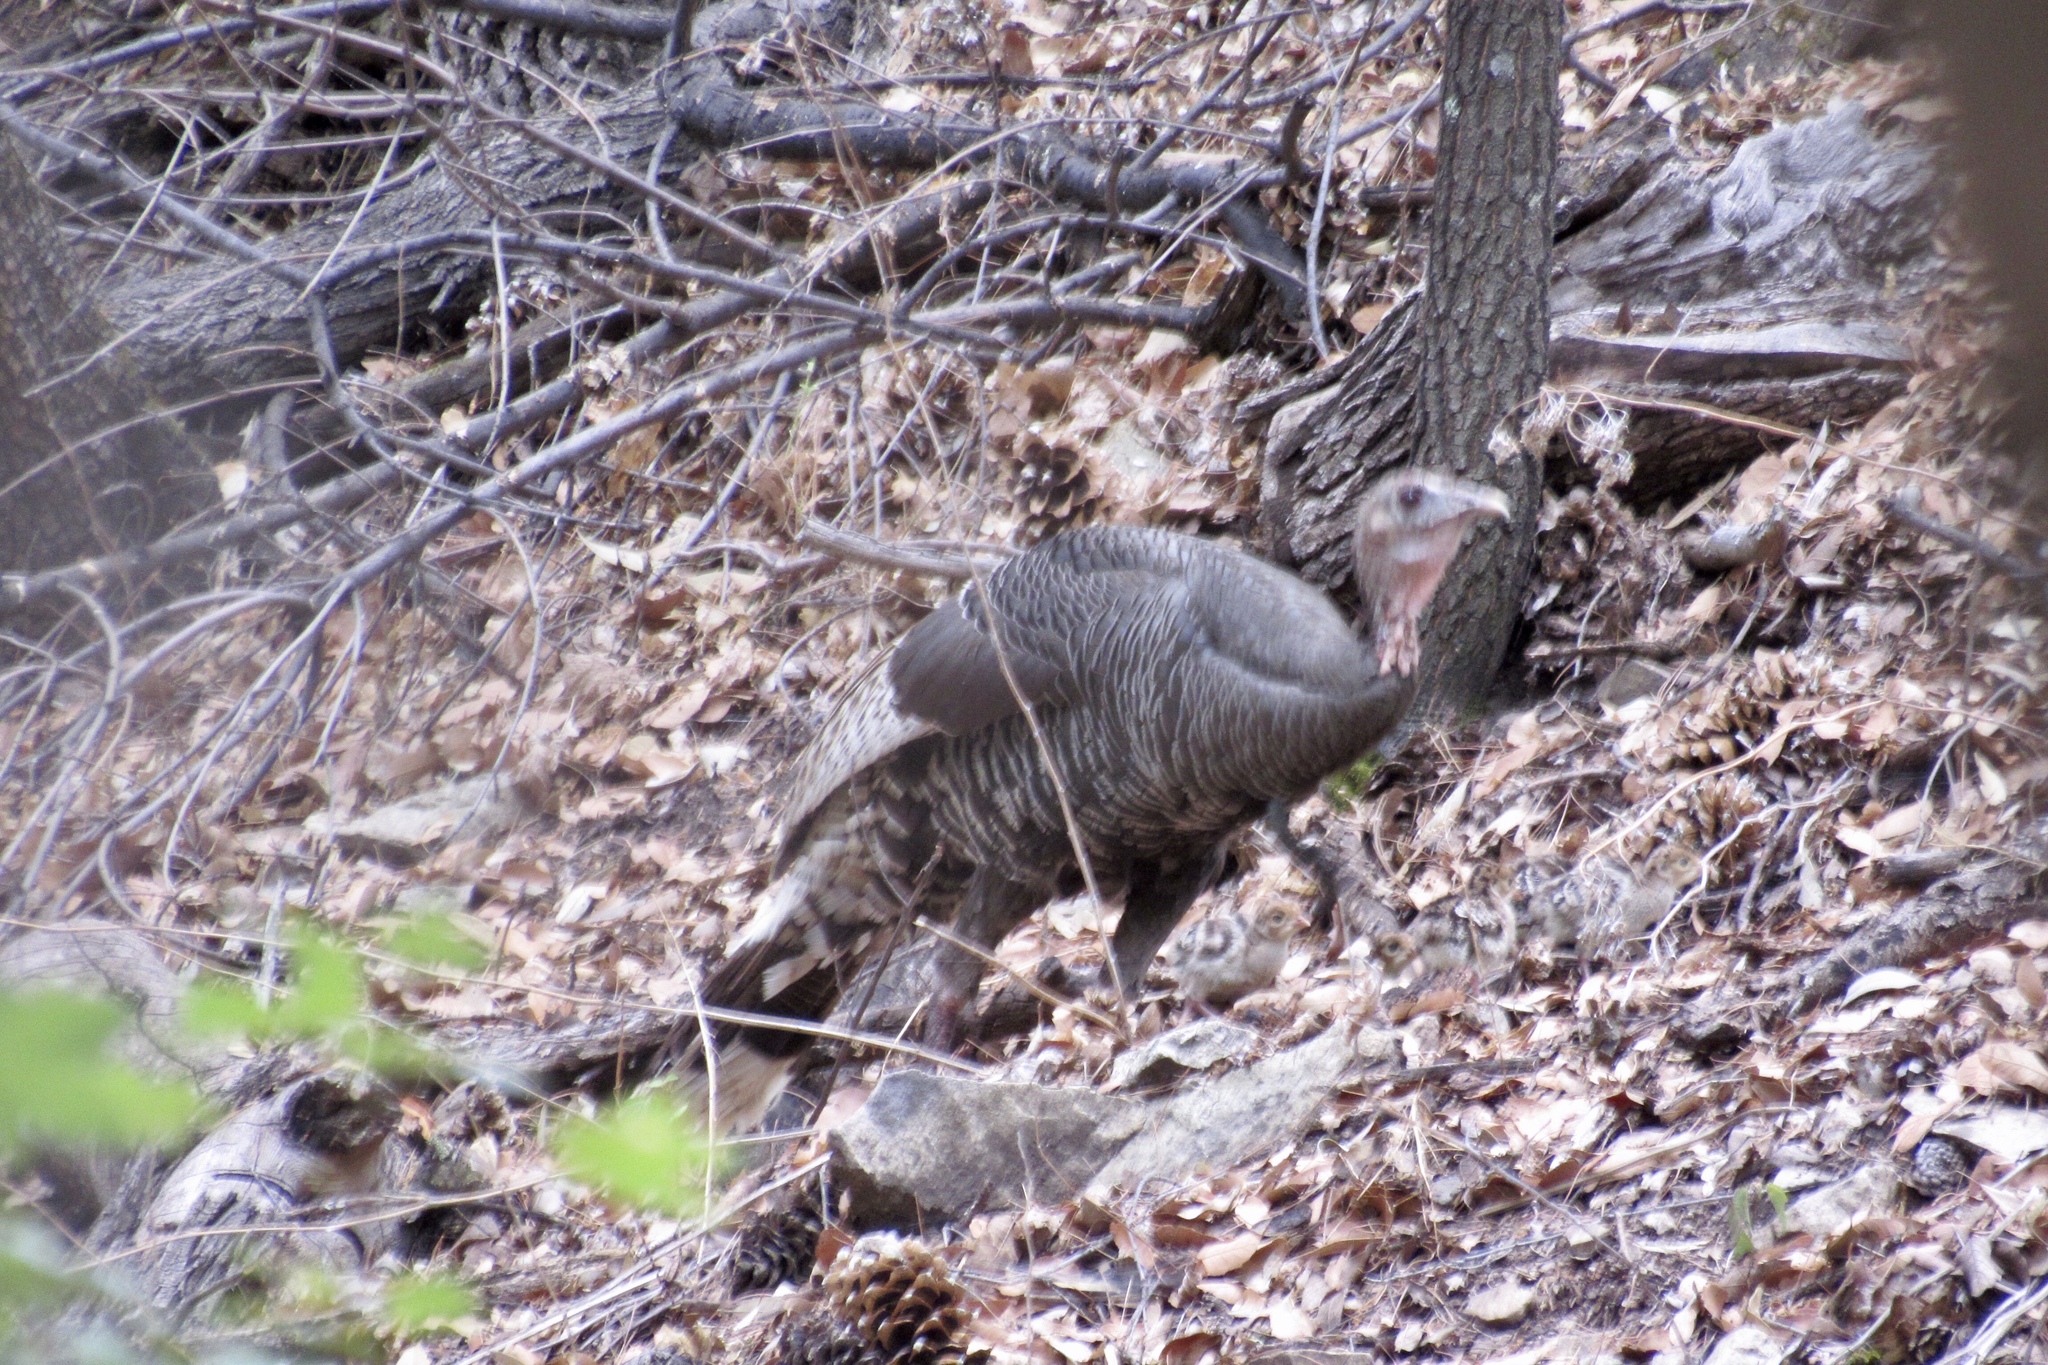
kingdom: Animalia
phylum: Chordata
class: Aves
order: Galliformes
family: Phasianidae
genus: Meleagris
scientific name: Meleagris gallopavo
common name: Wild turkey
